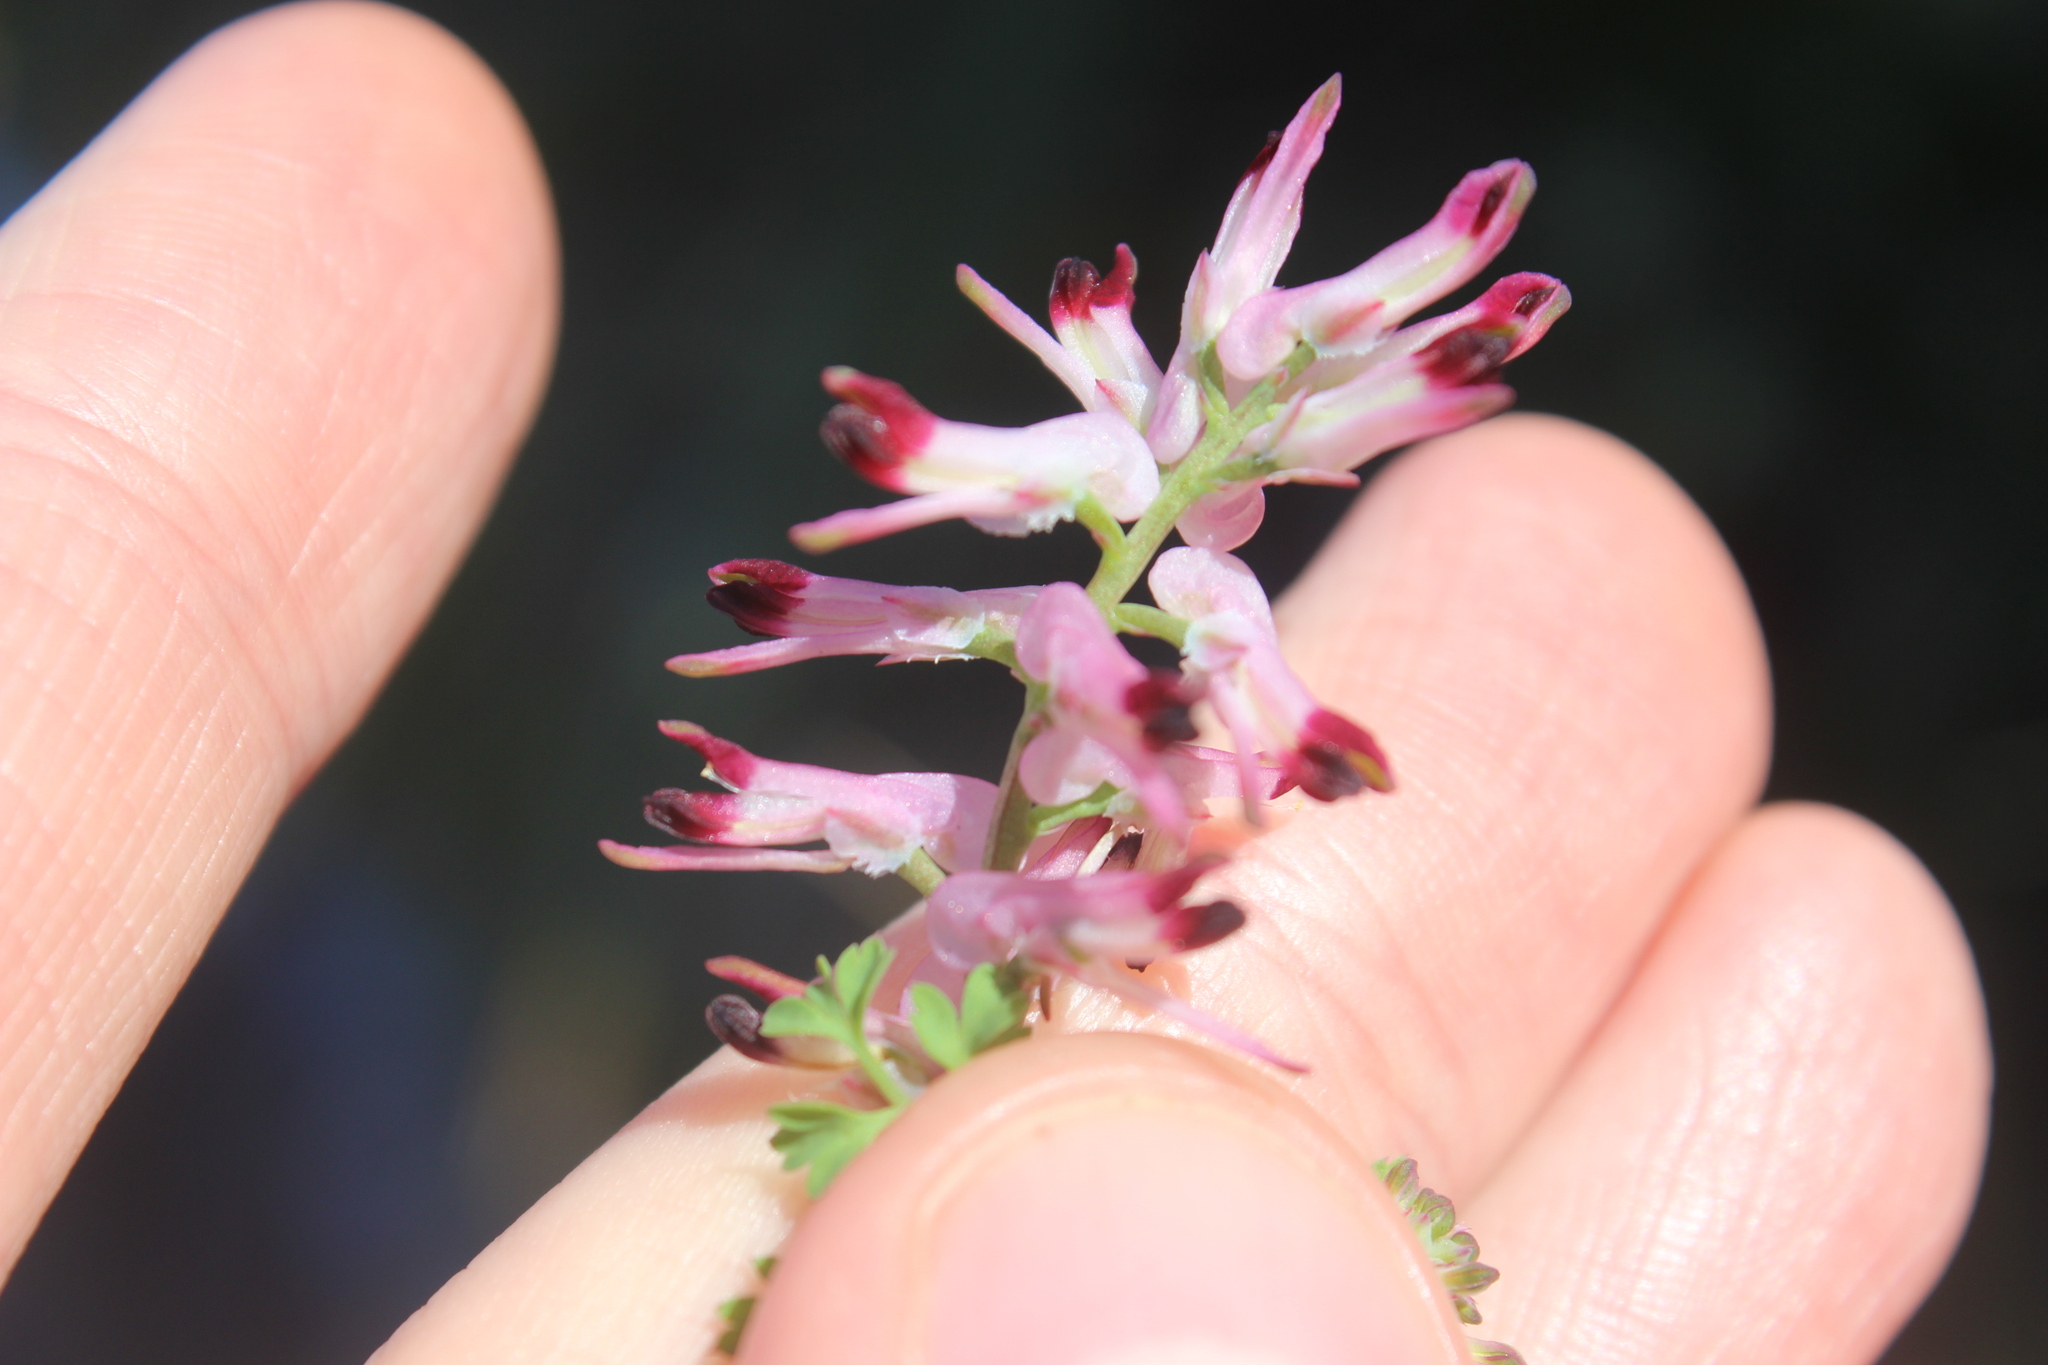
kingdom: Plantae
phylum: Tracheophyta
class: Magnoliopsida
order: Ranunculales
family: Papaveraceae
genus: Fumaria
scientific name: Fumaria muralis
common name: Common ramping-fumitory
